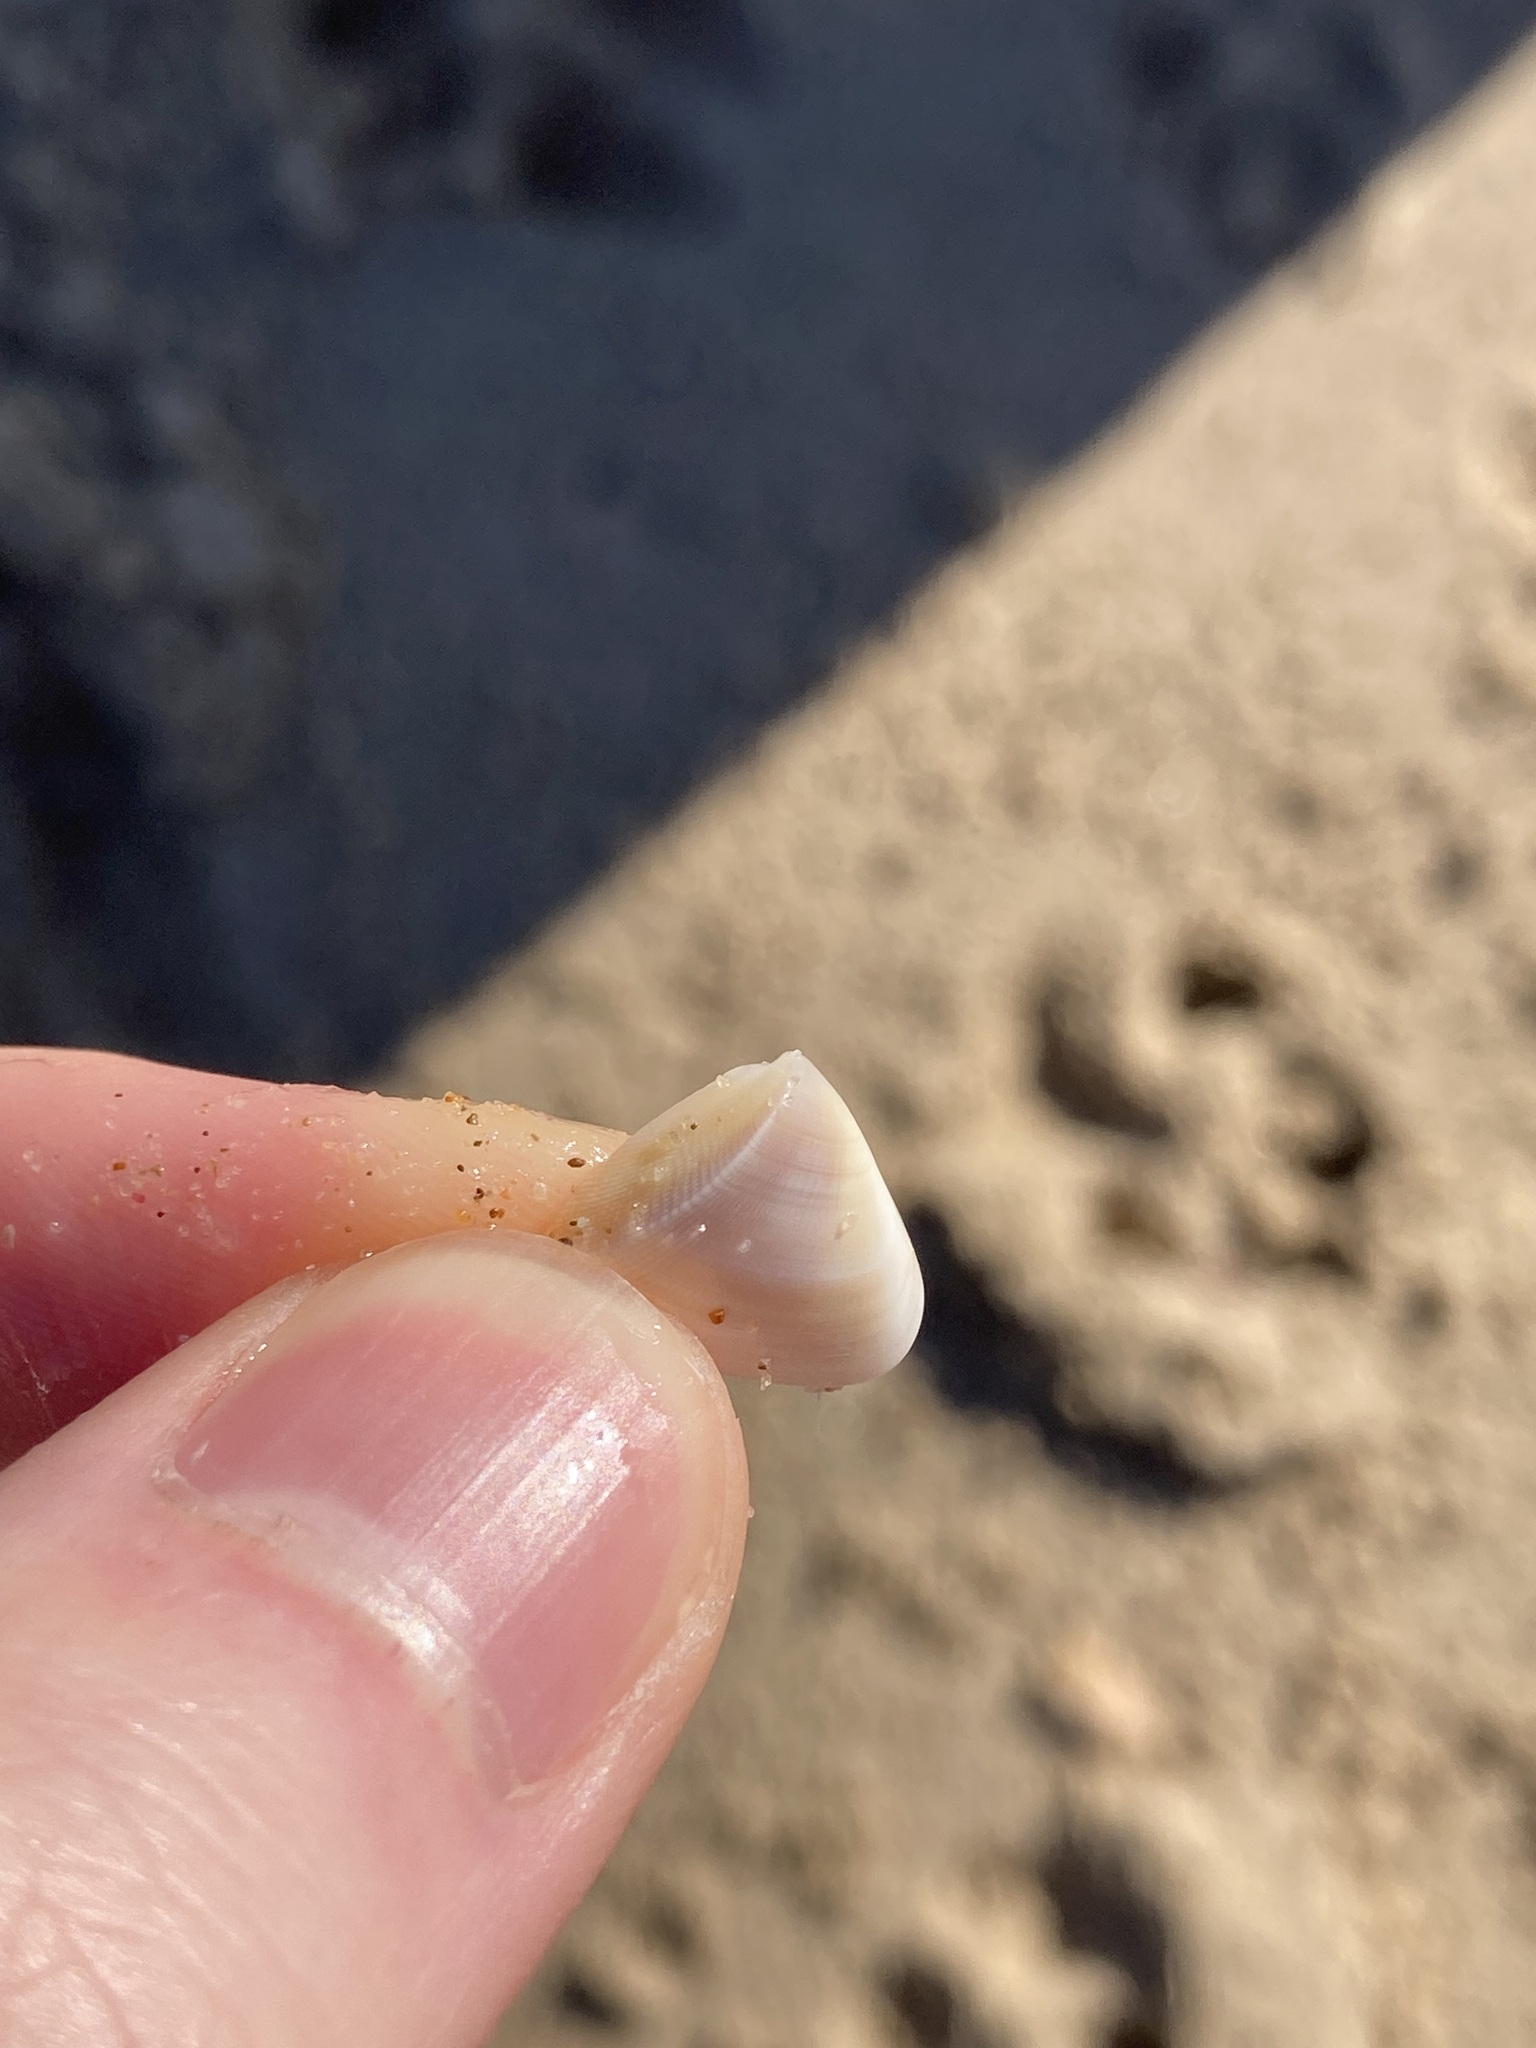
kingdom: Animalia
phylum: Mollusca
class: Bivalvia
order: Cardiida
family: Donacidae
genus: Donax
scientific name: Donax brazieri
